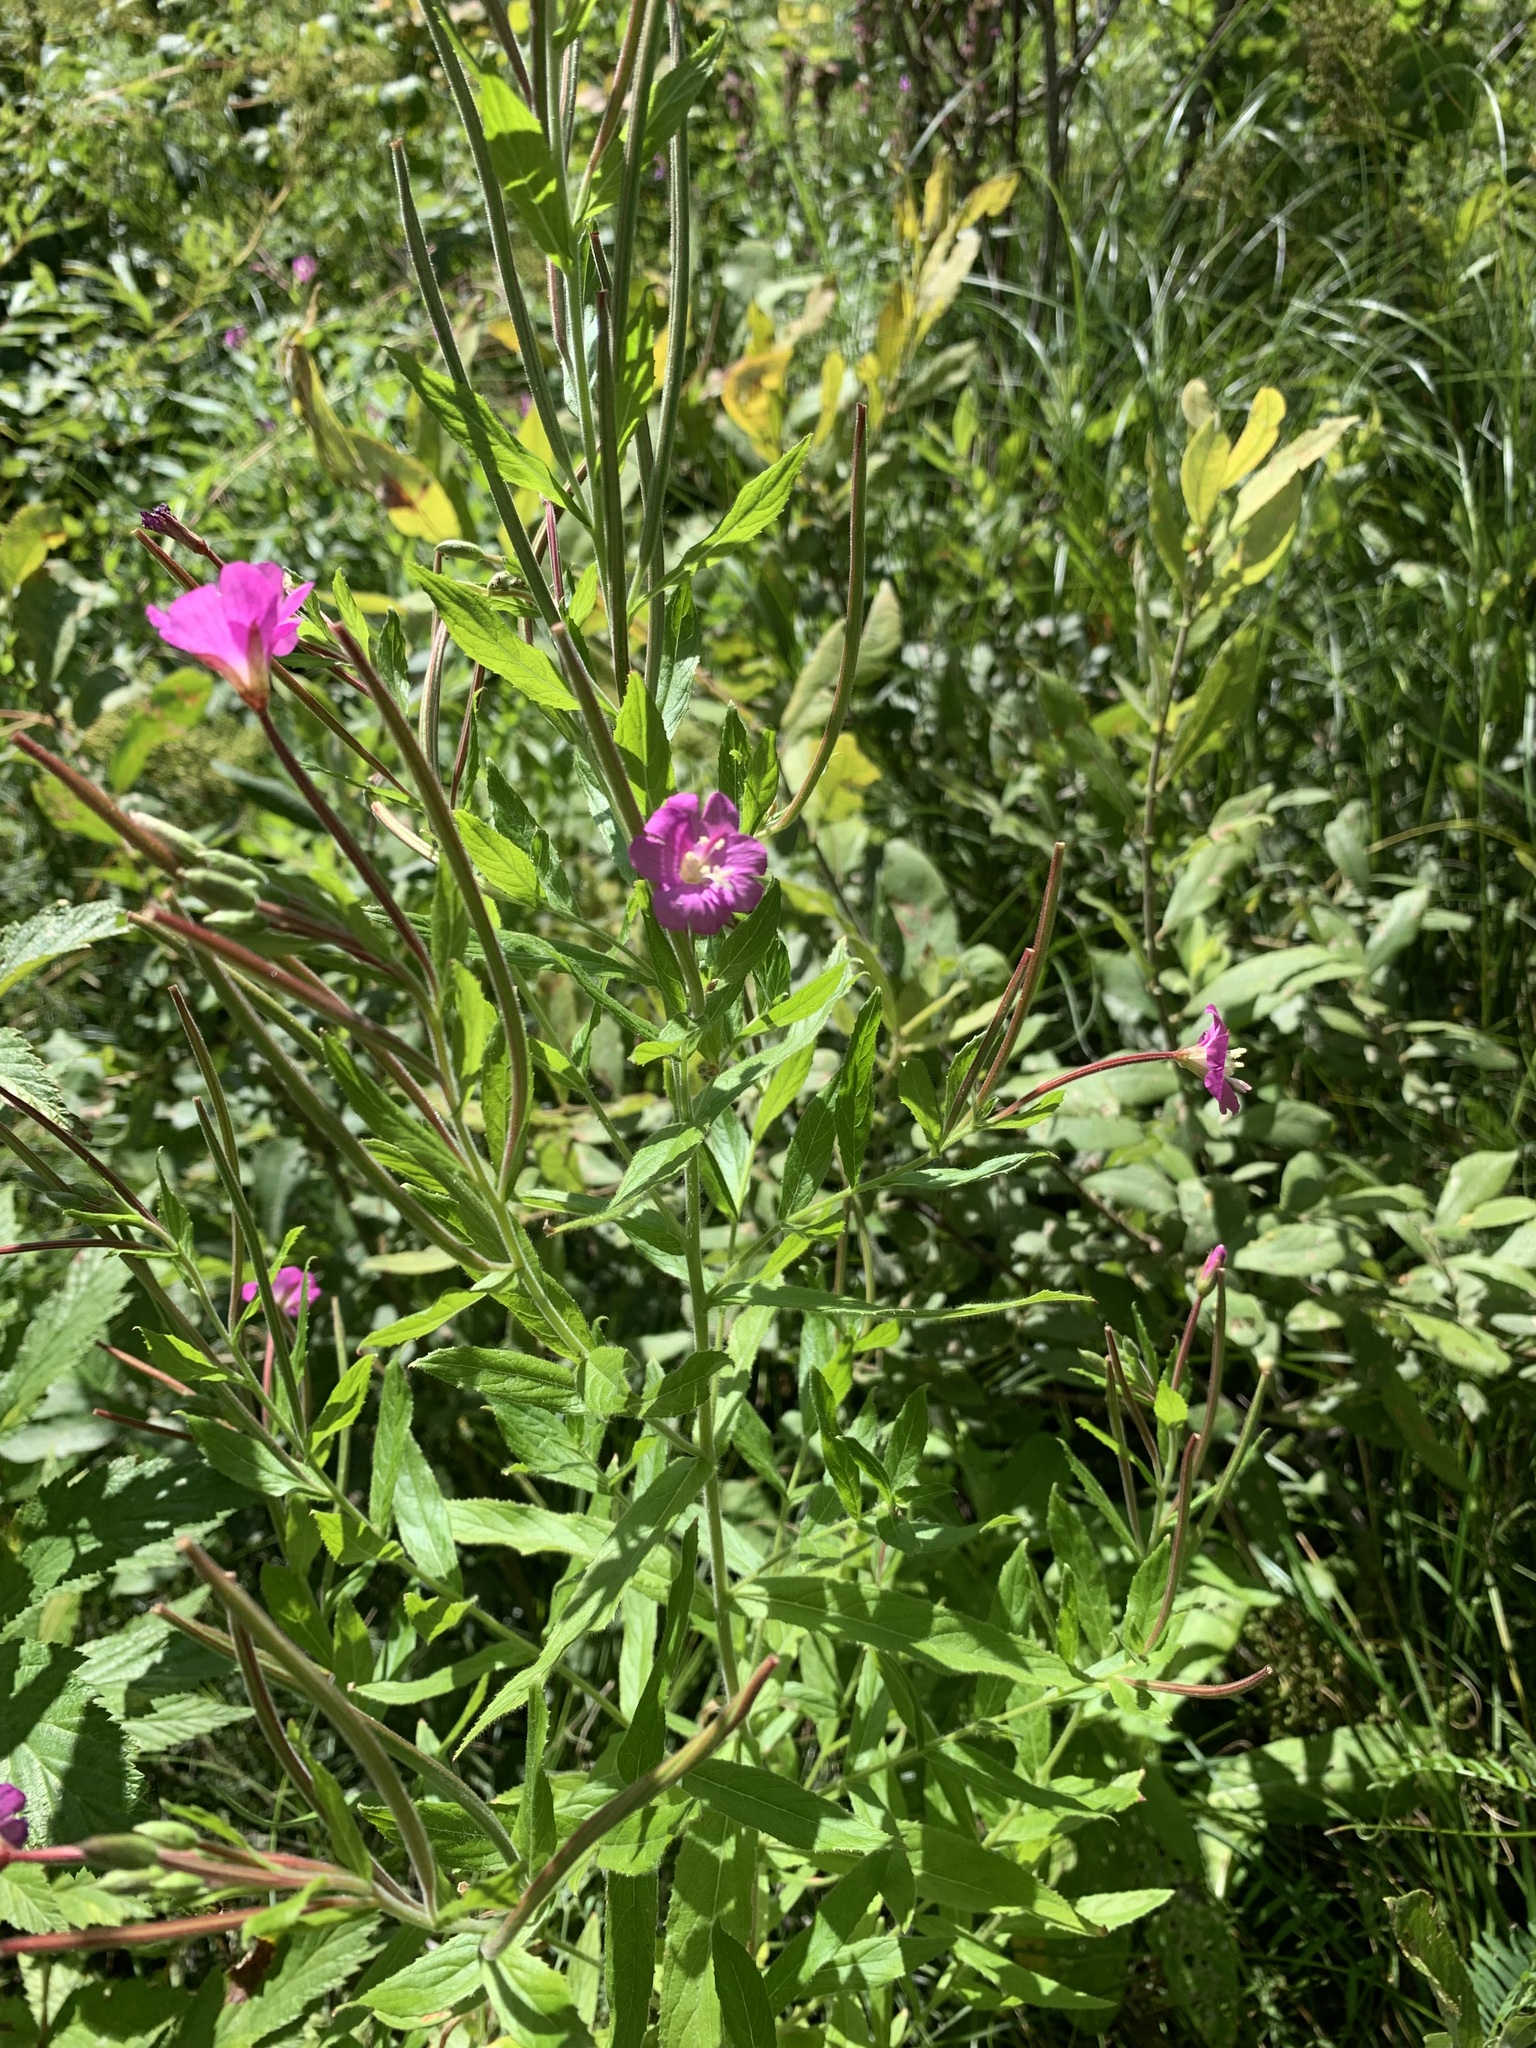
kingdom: Plantae
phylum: Tracheophyta
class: Magnoliopsida
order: Myrtales
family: Onagraceae
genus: Epilobium
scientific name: Epilobium hirsutum
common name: Great willowherb
